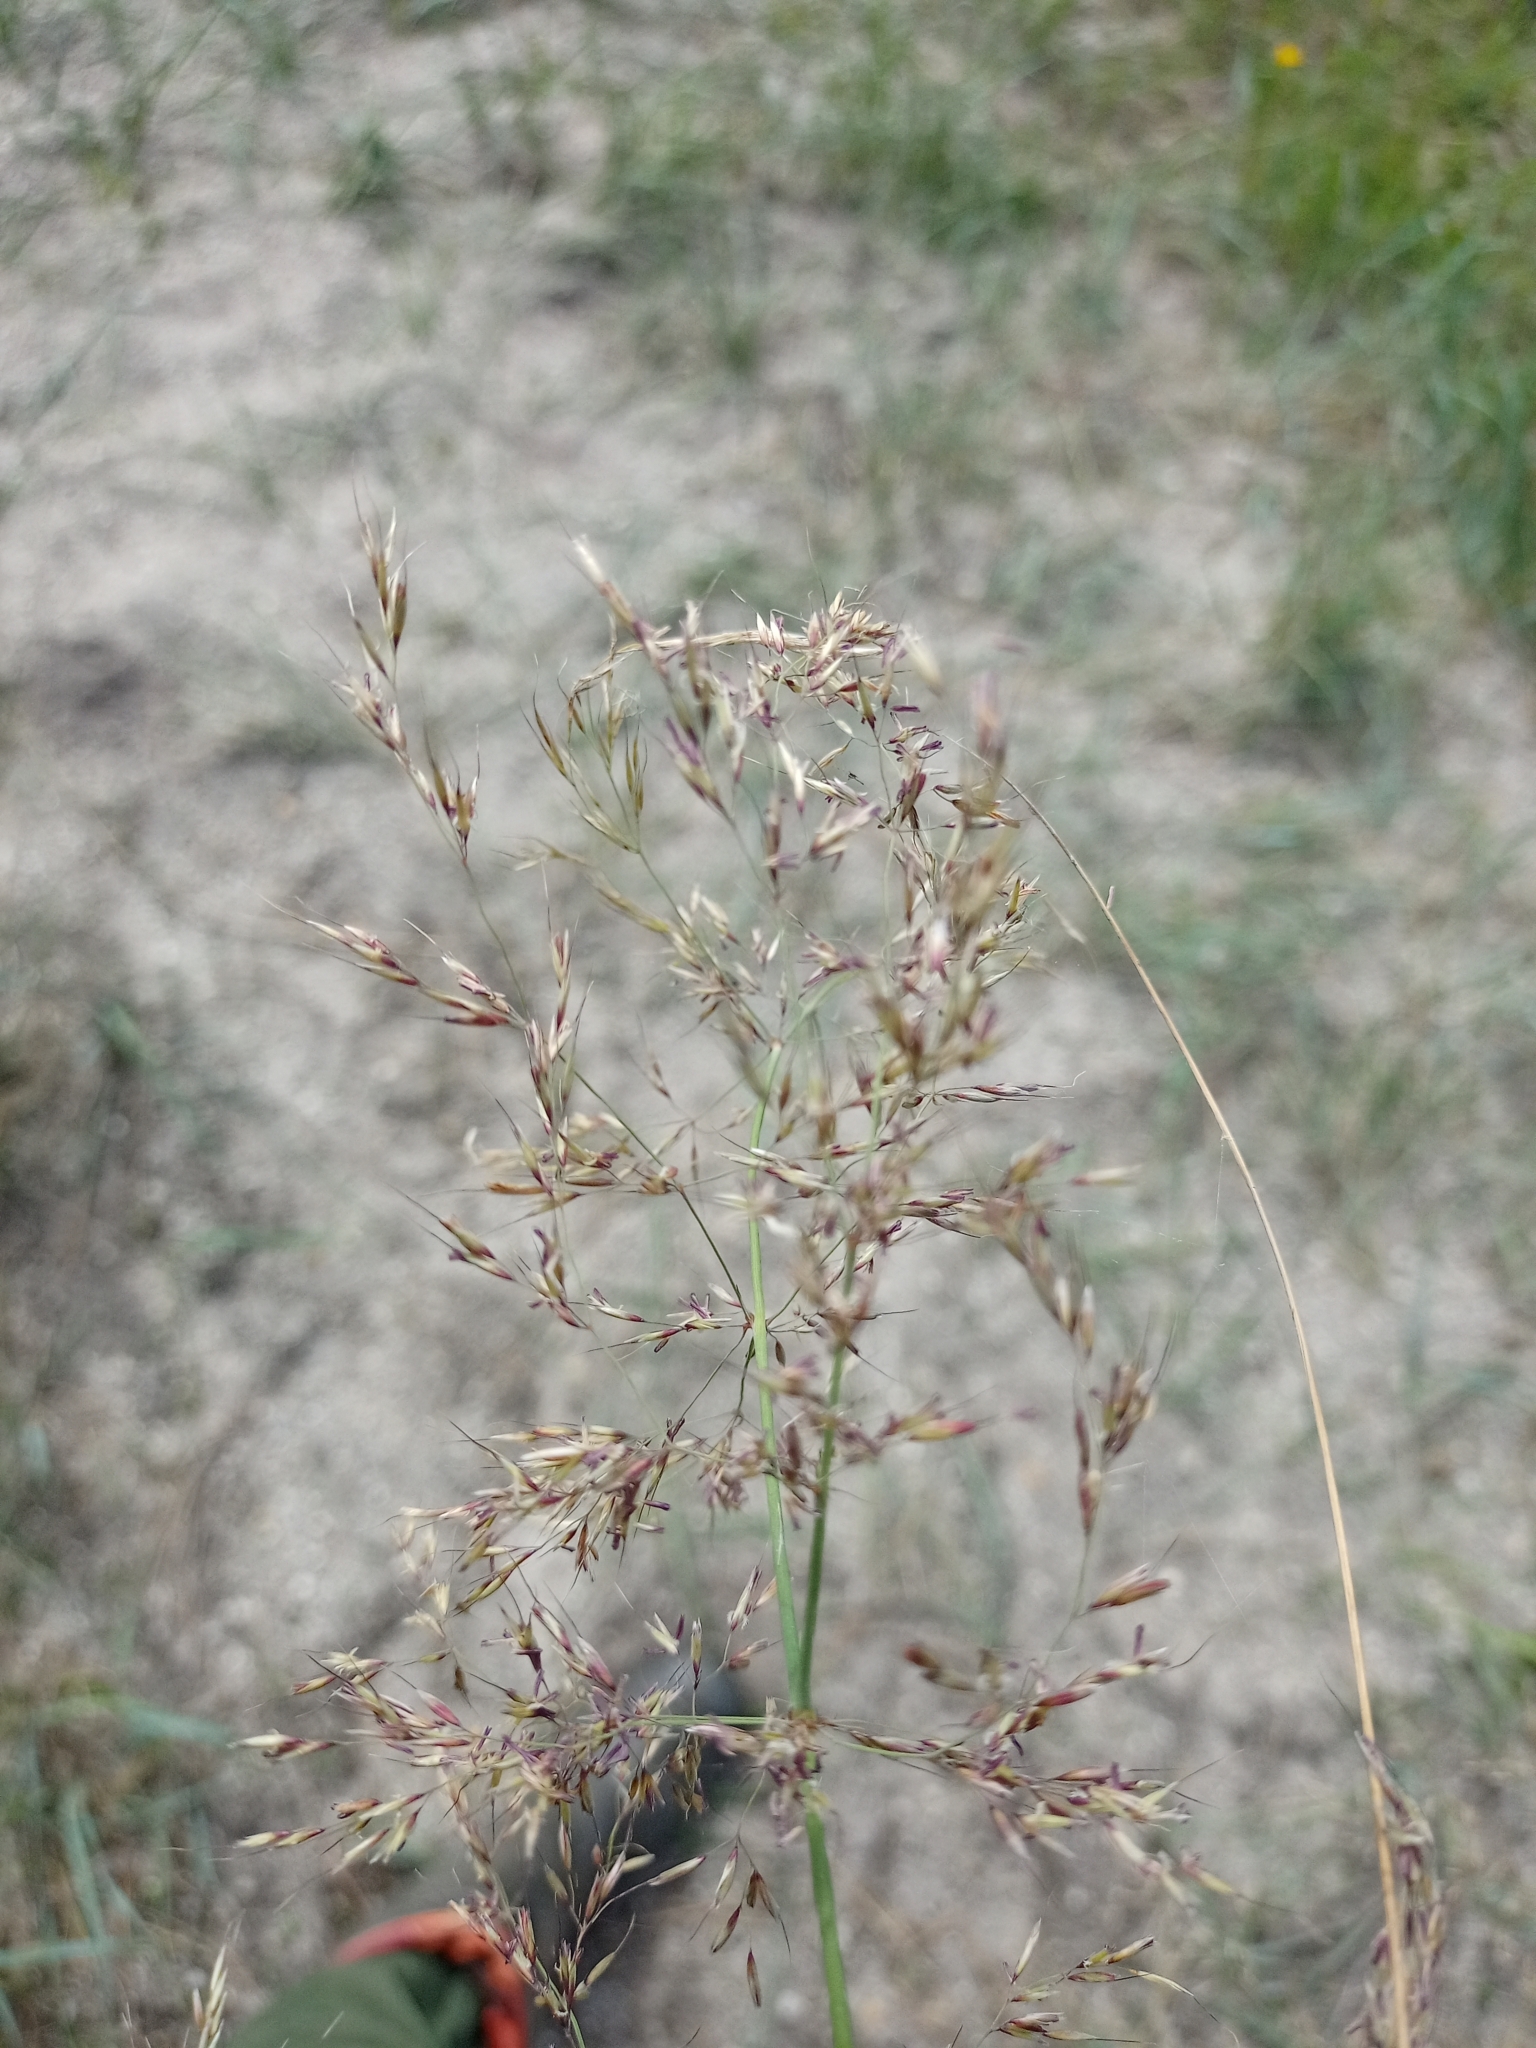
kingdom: Plantae
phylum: Tracheophyta
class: Liliopsida
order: Poales
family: Poaceae
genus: Neotrinia
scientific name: Neotrinia splendens
